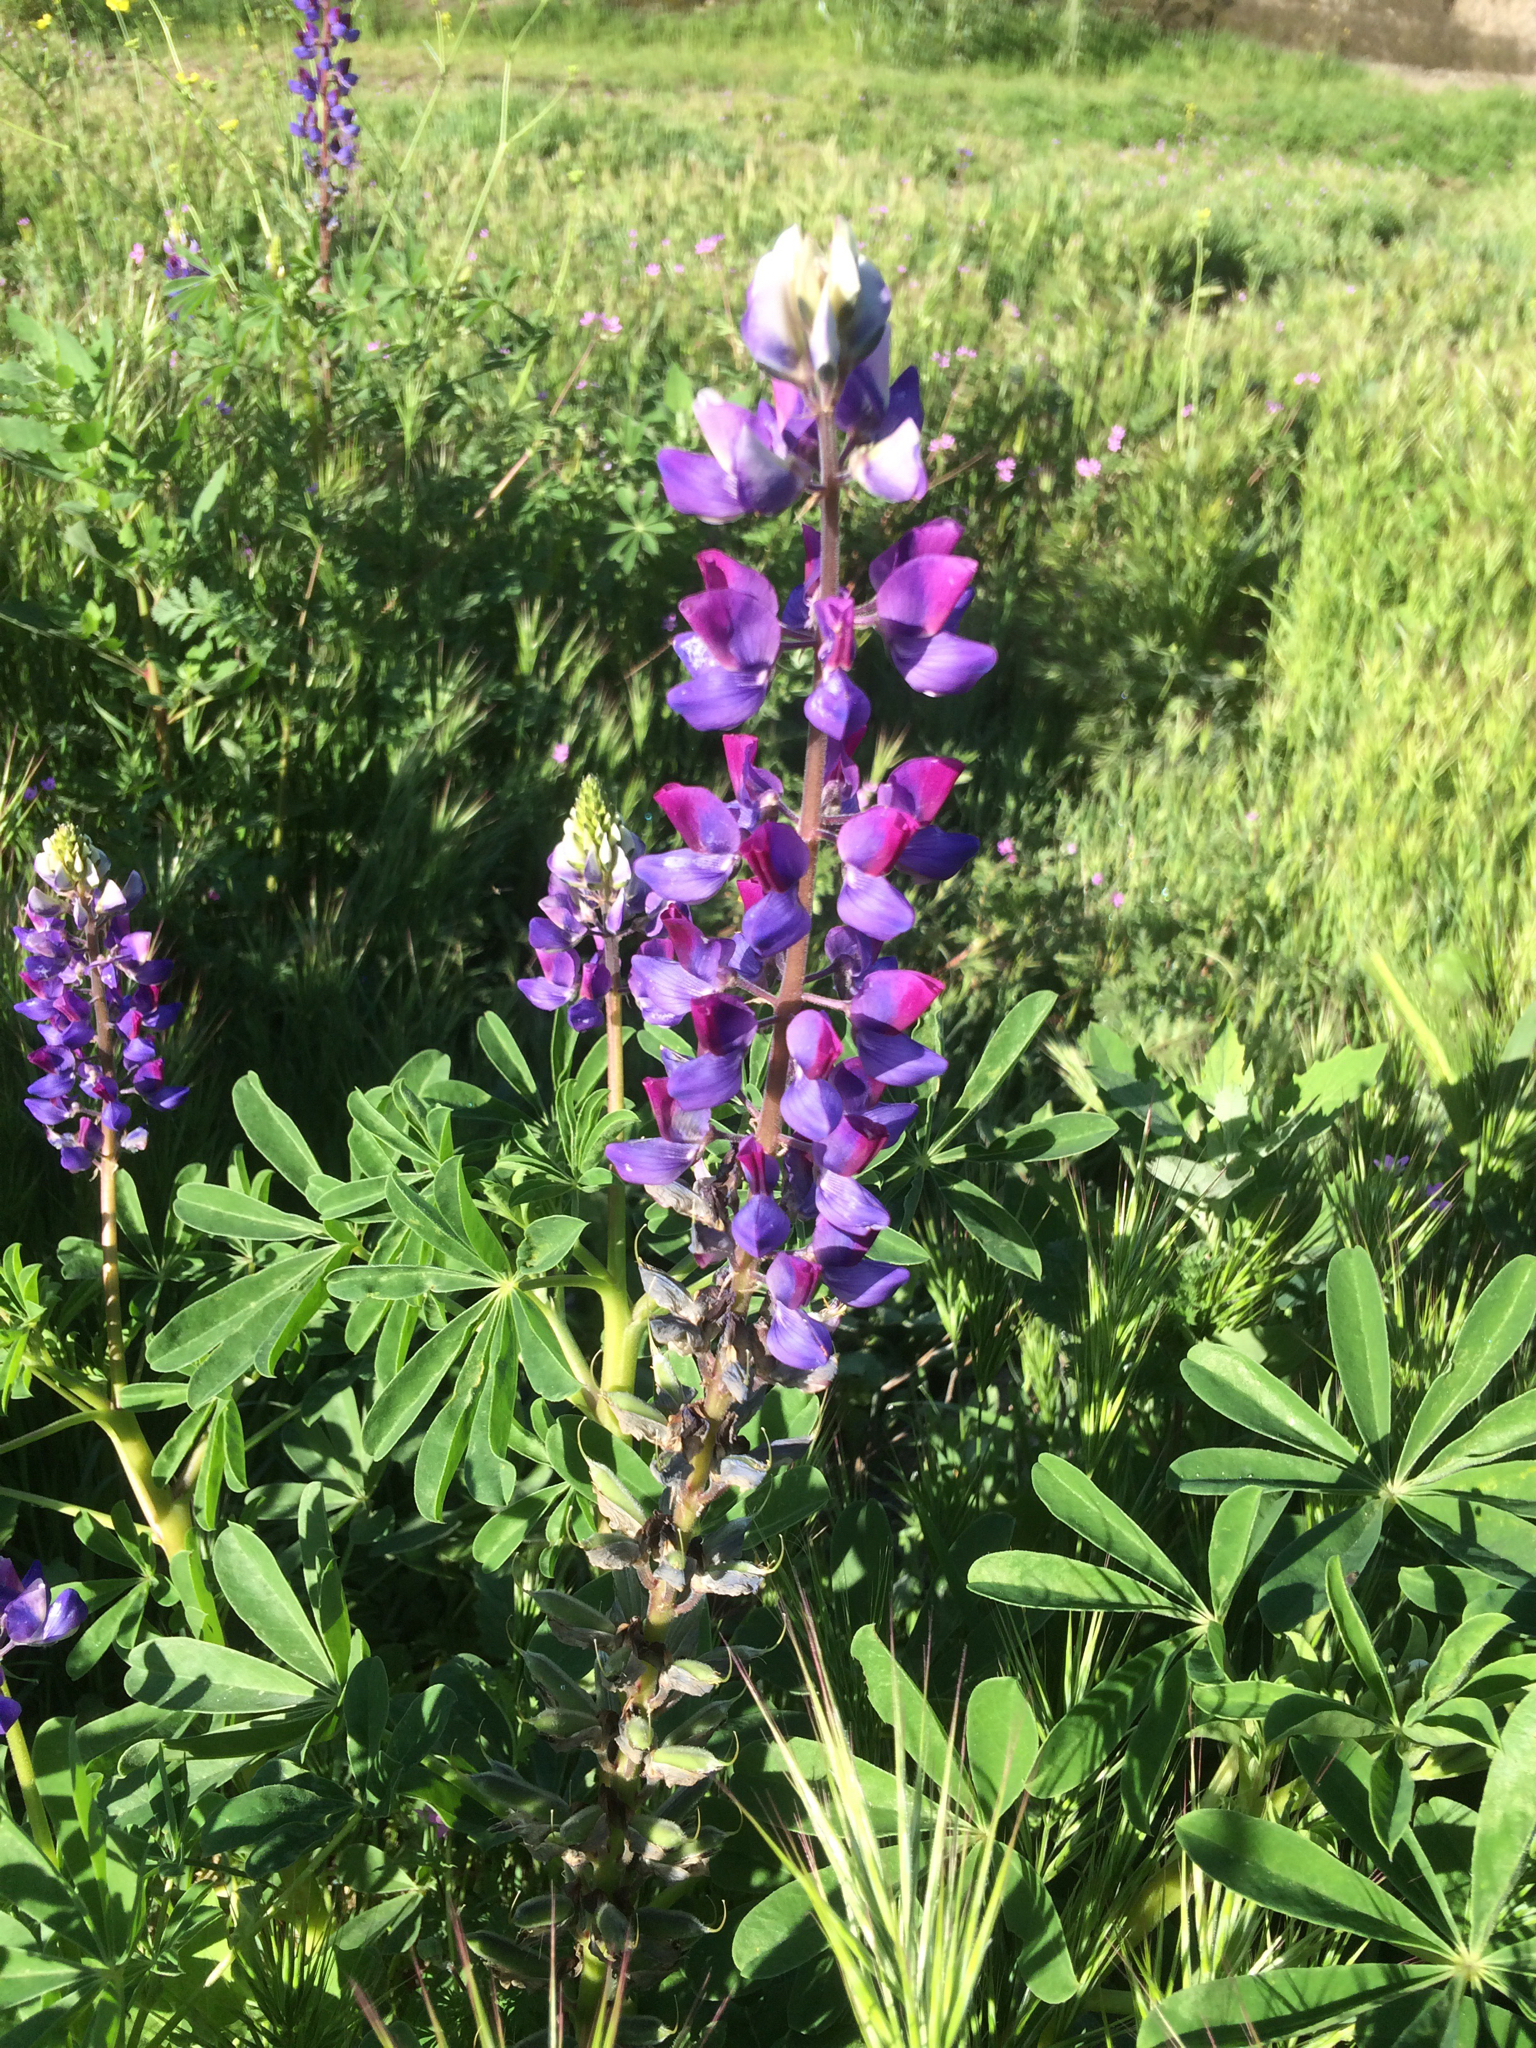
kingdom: Plantae
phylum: Tracheophyta
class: Magnoliopsida
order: Fabales
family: Fabaceae
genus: Lupinus
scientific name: Lupinus succulentus
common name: Arroyo lupine
